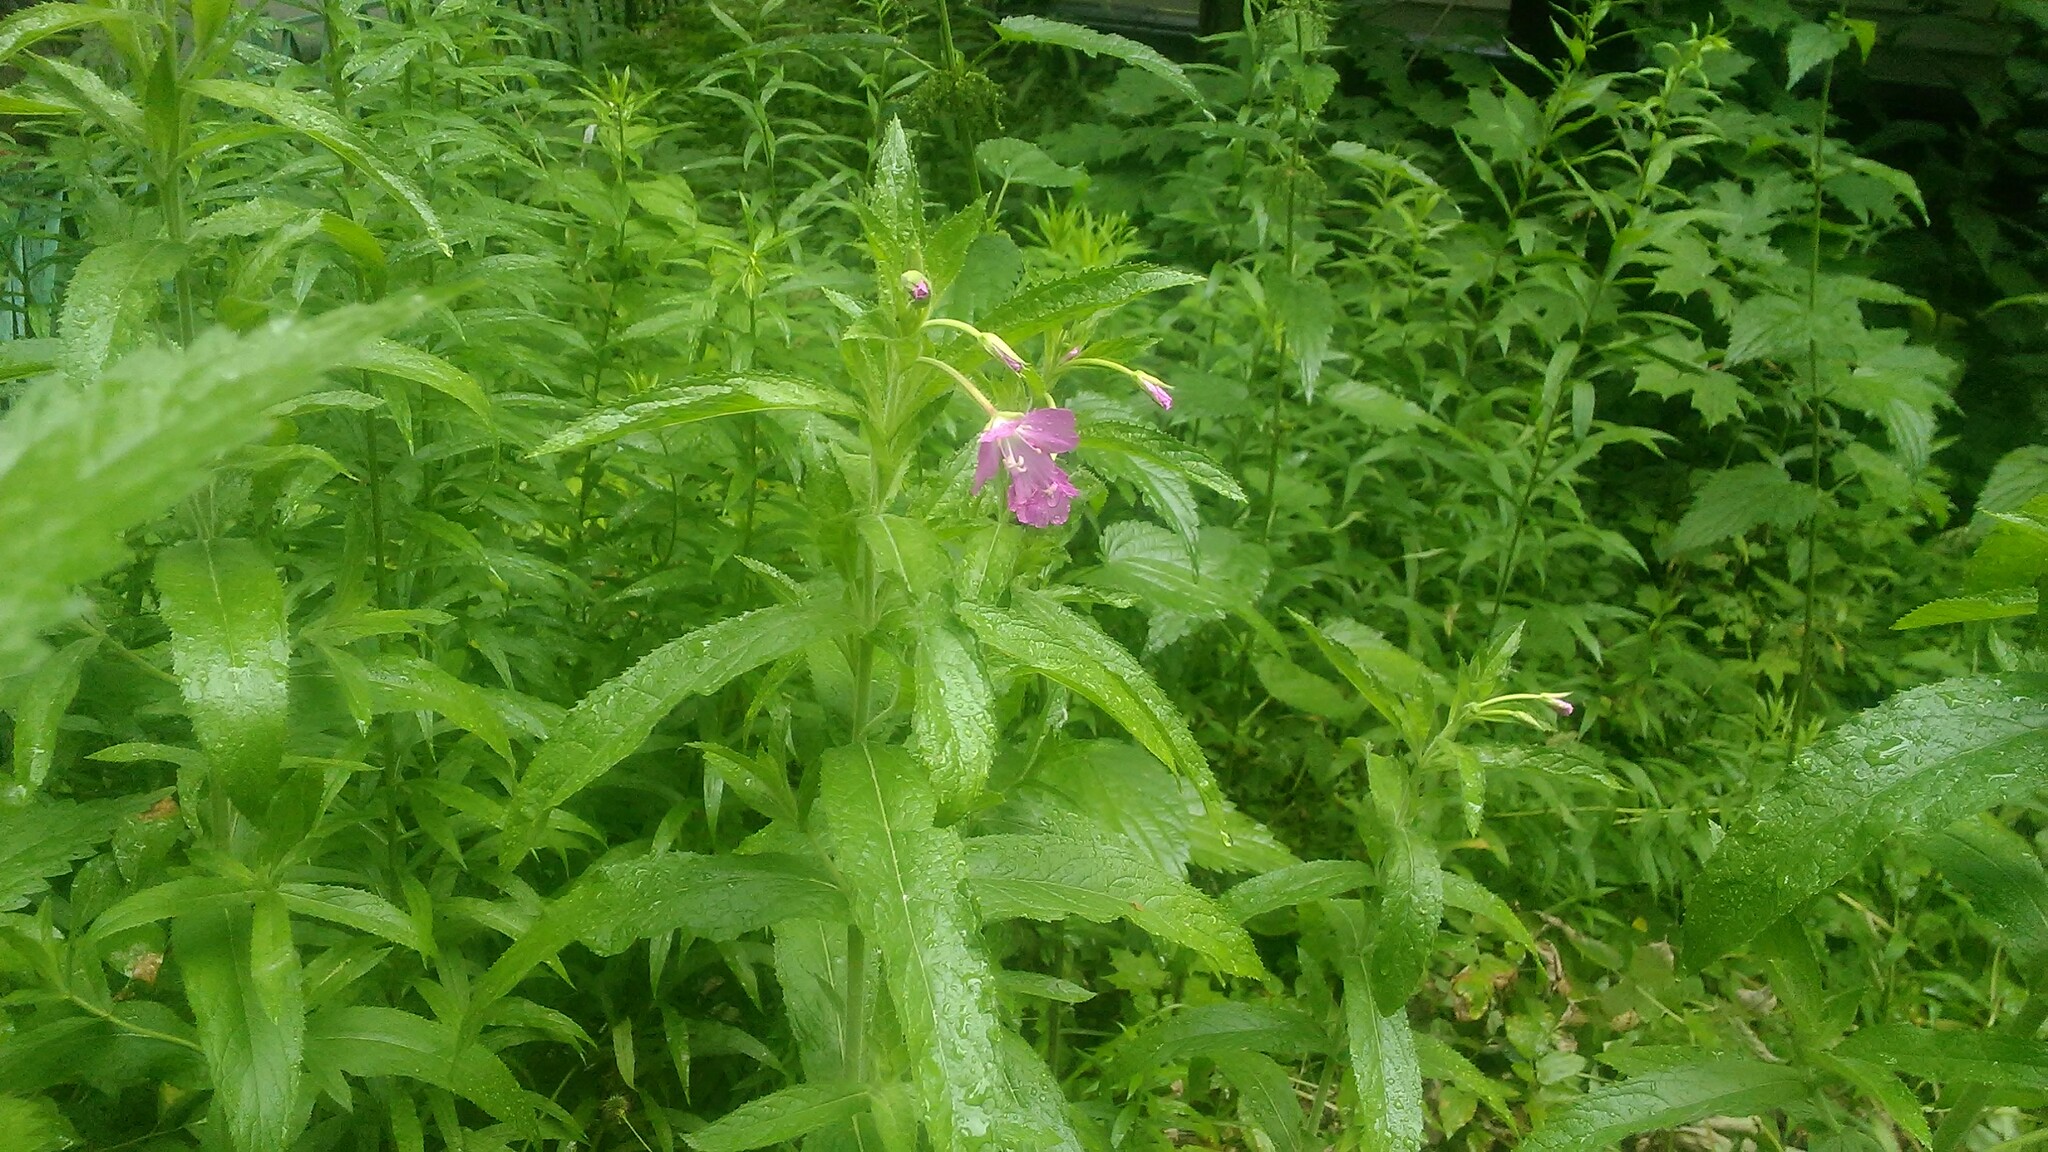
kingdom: Plantae
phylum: Tracheophyta
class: Magnoliopsida
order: Myrtales
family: Onagraceae
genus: Epilobium
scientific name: Epilobium hirsutum
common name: Great willowherb
